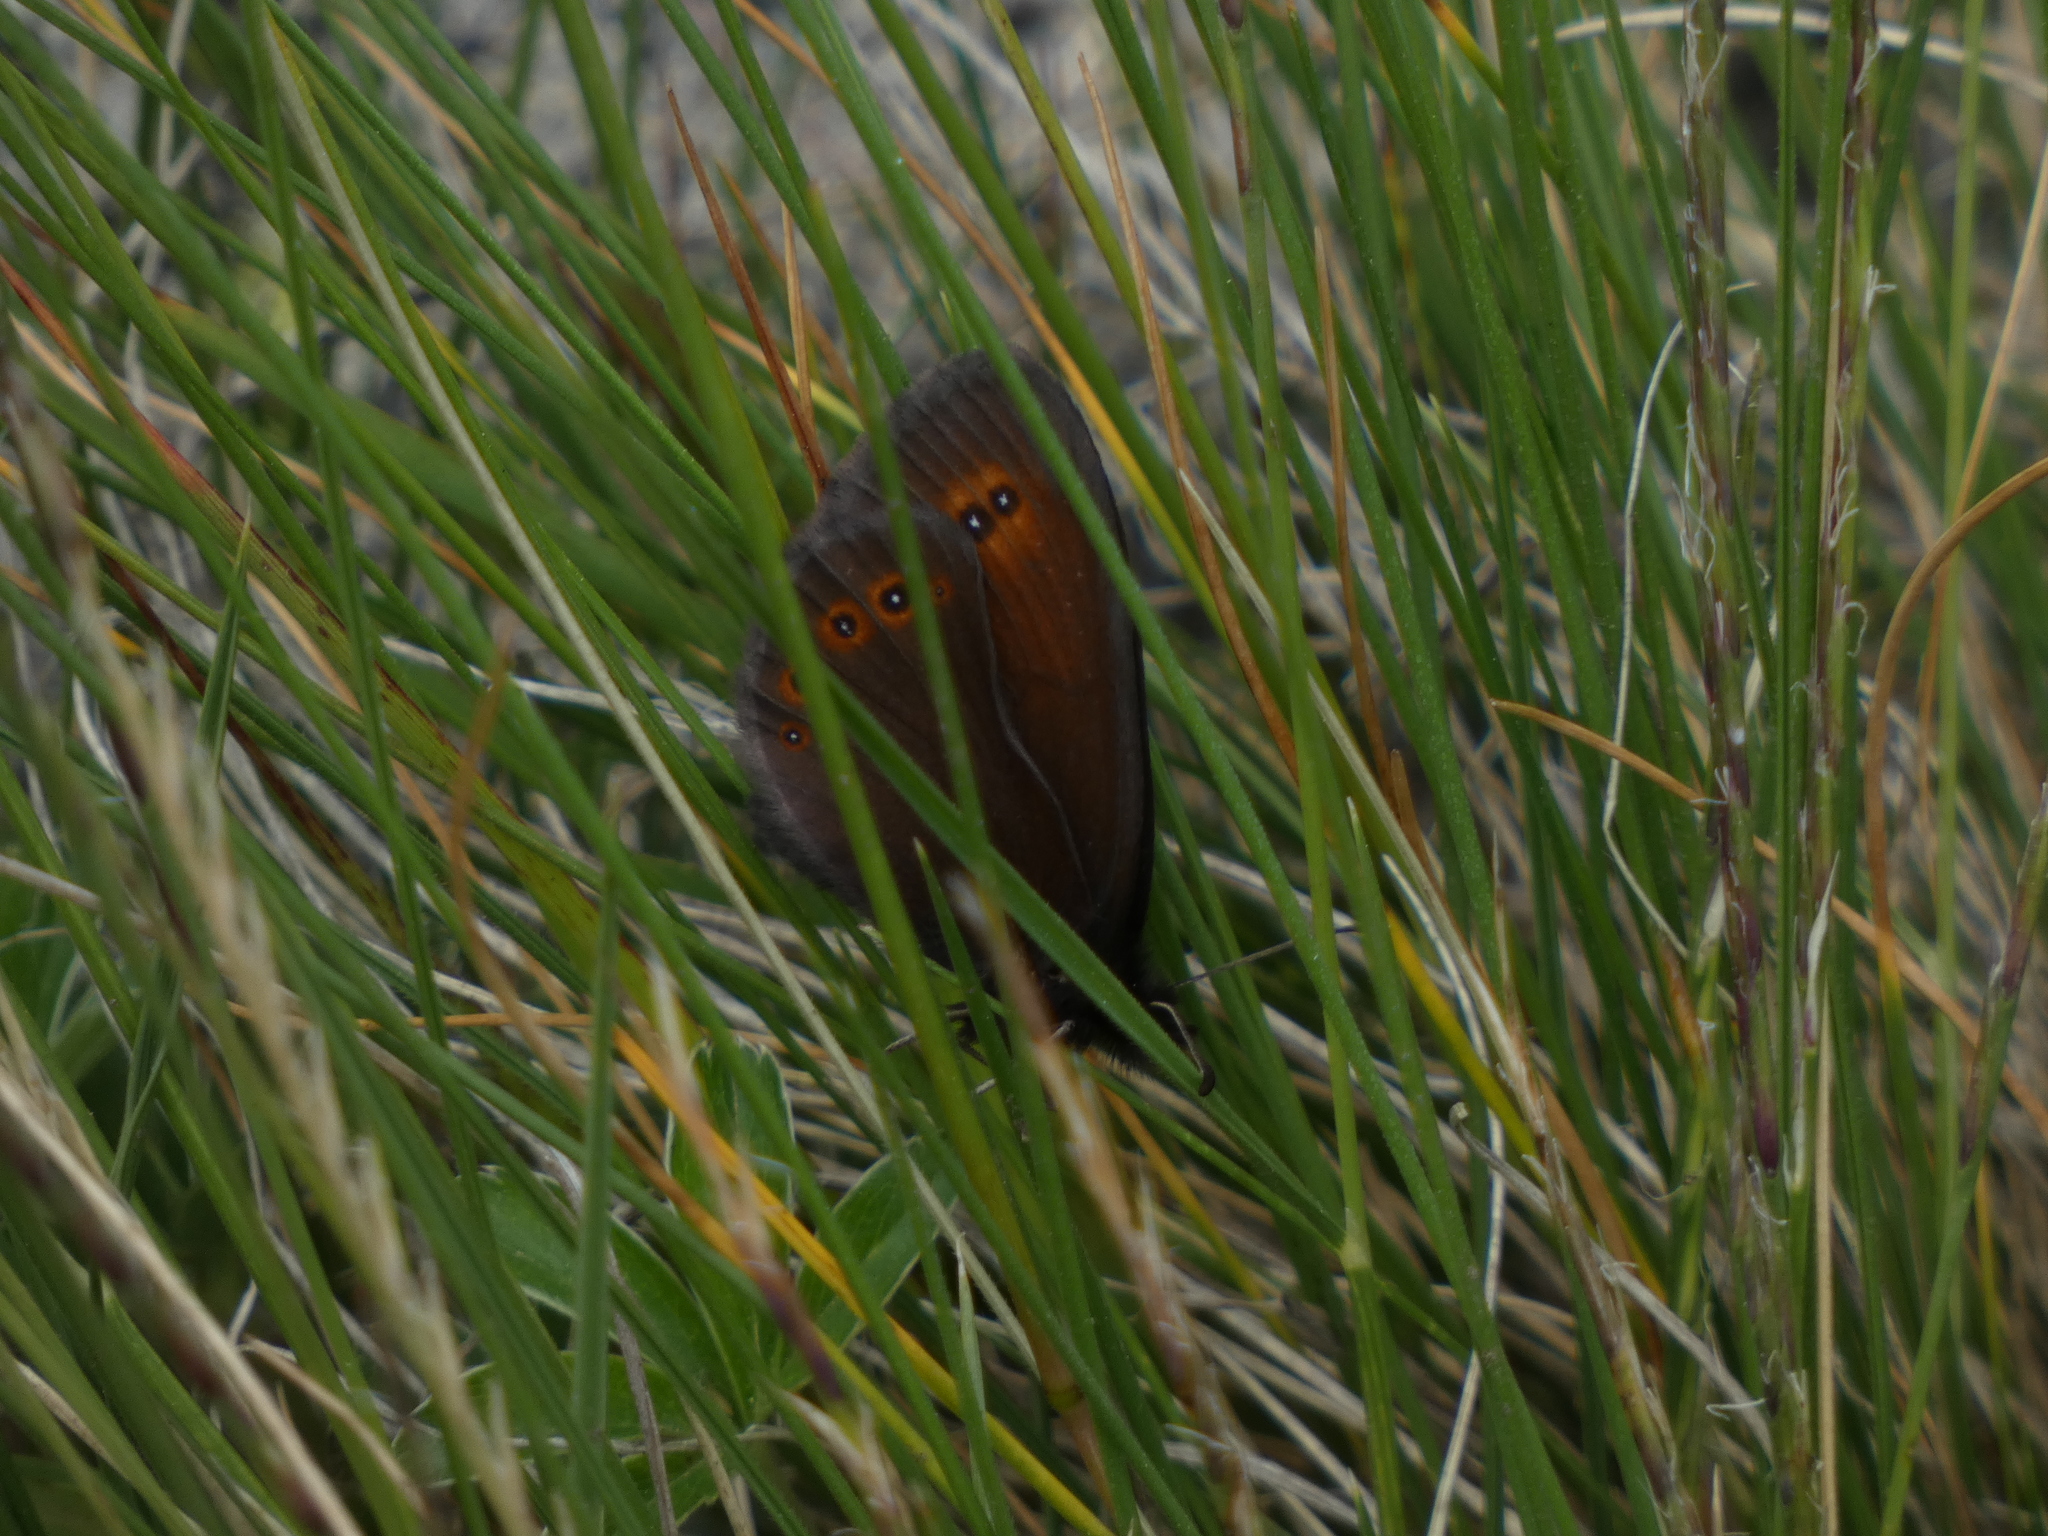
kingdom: Animalia
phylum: Arthropoda
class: Insecta
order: Lepidoptera
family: Nymphalidae
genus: Erebia
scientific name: Erebia oeme
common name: Bright-eyed ringlet
